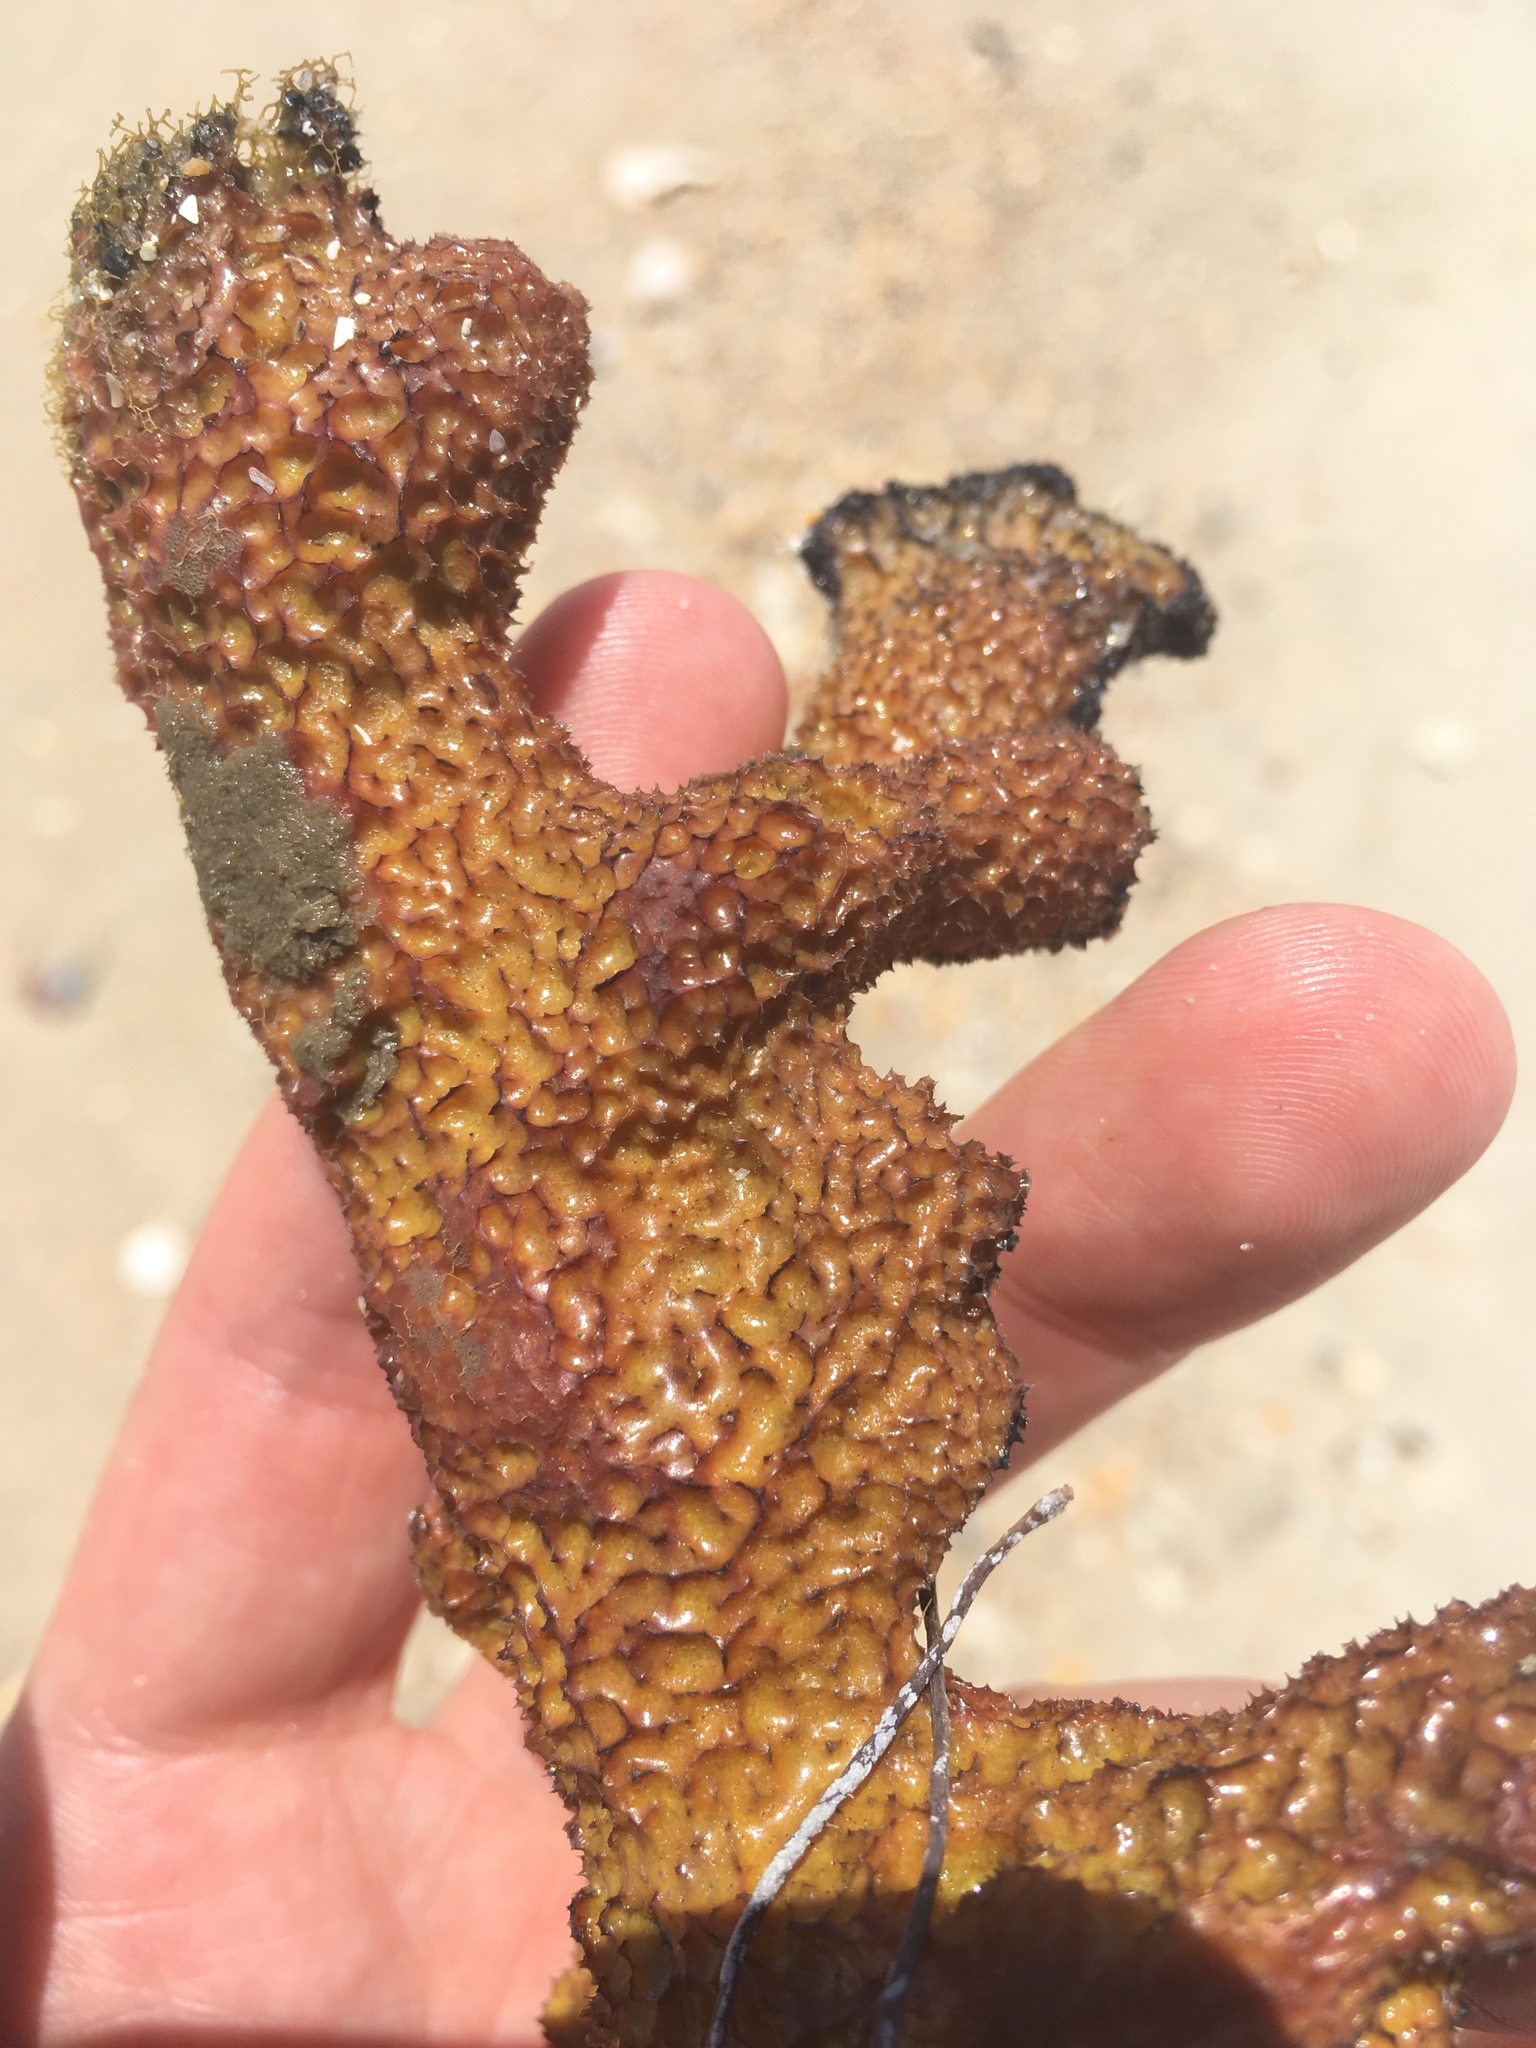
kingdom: Animalia
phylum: Porifera
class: Demospongiae
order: Verongiida
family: Aplysinidae
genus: Aplysina
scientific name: Aplysina fulva
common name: Scattered pore rope sponge
